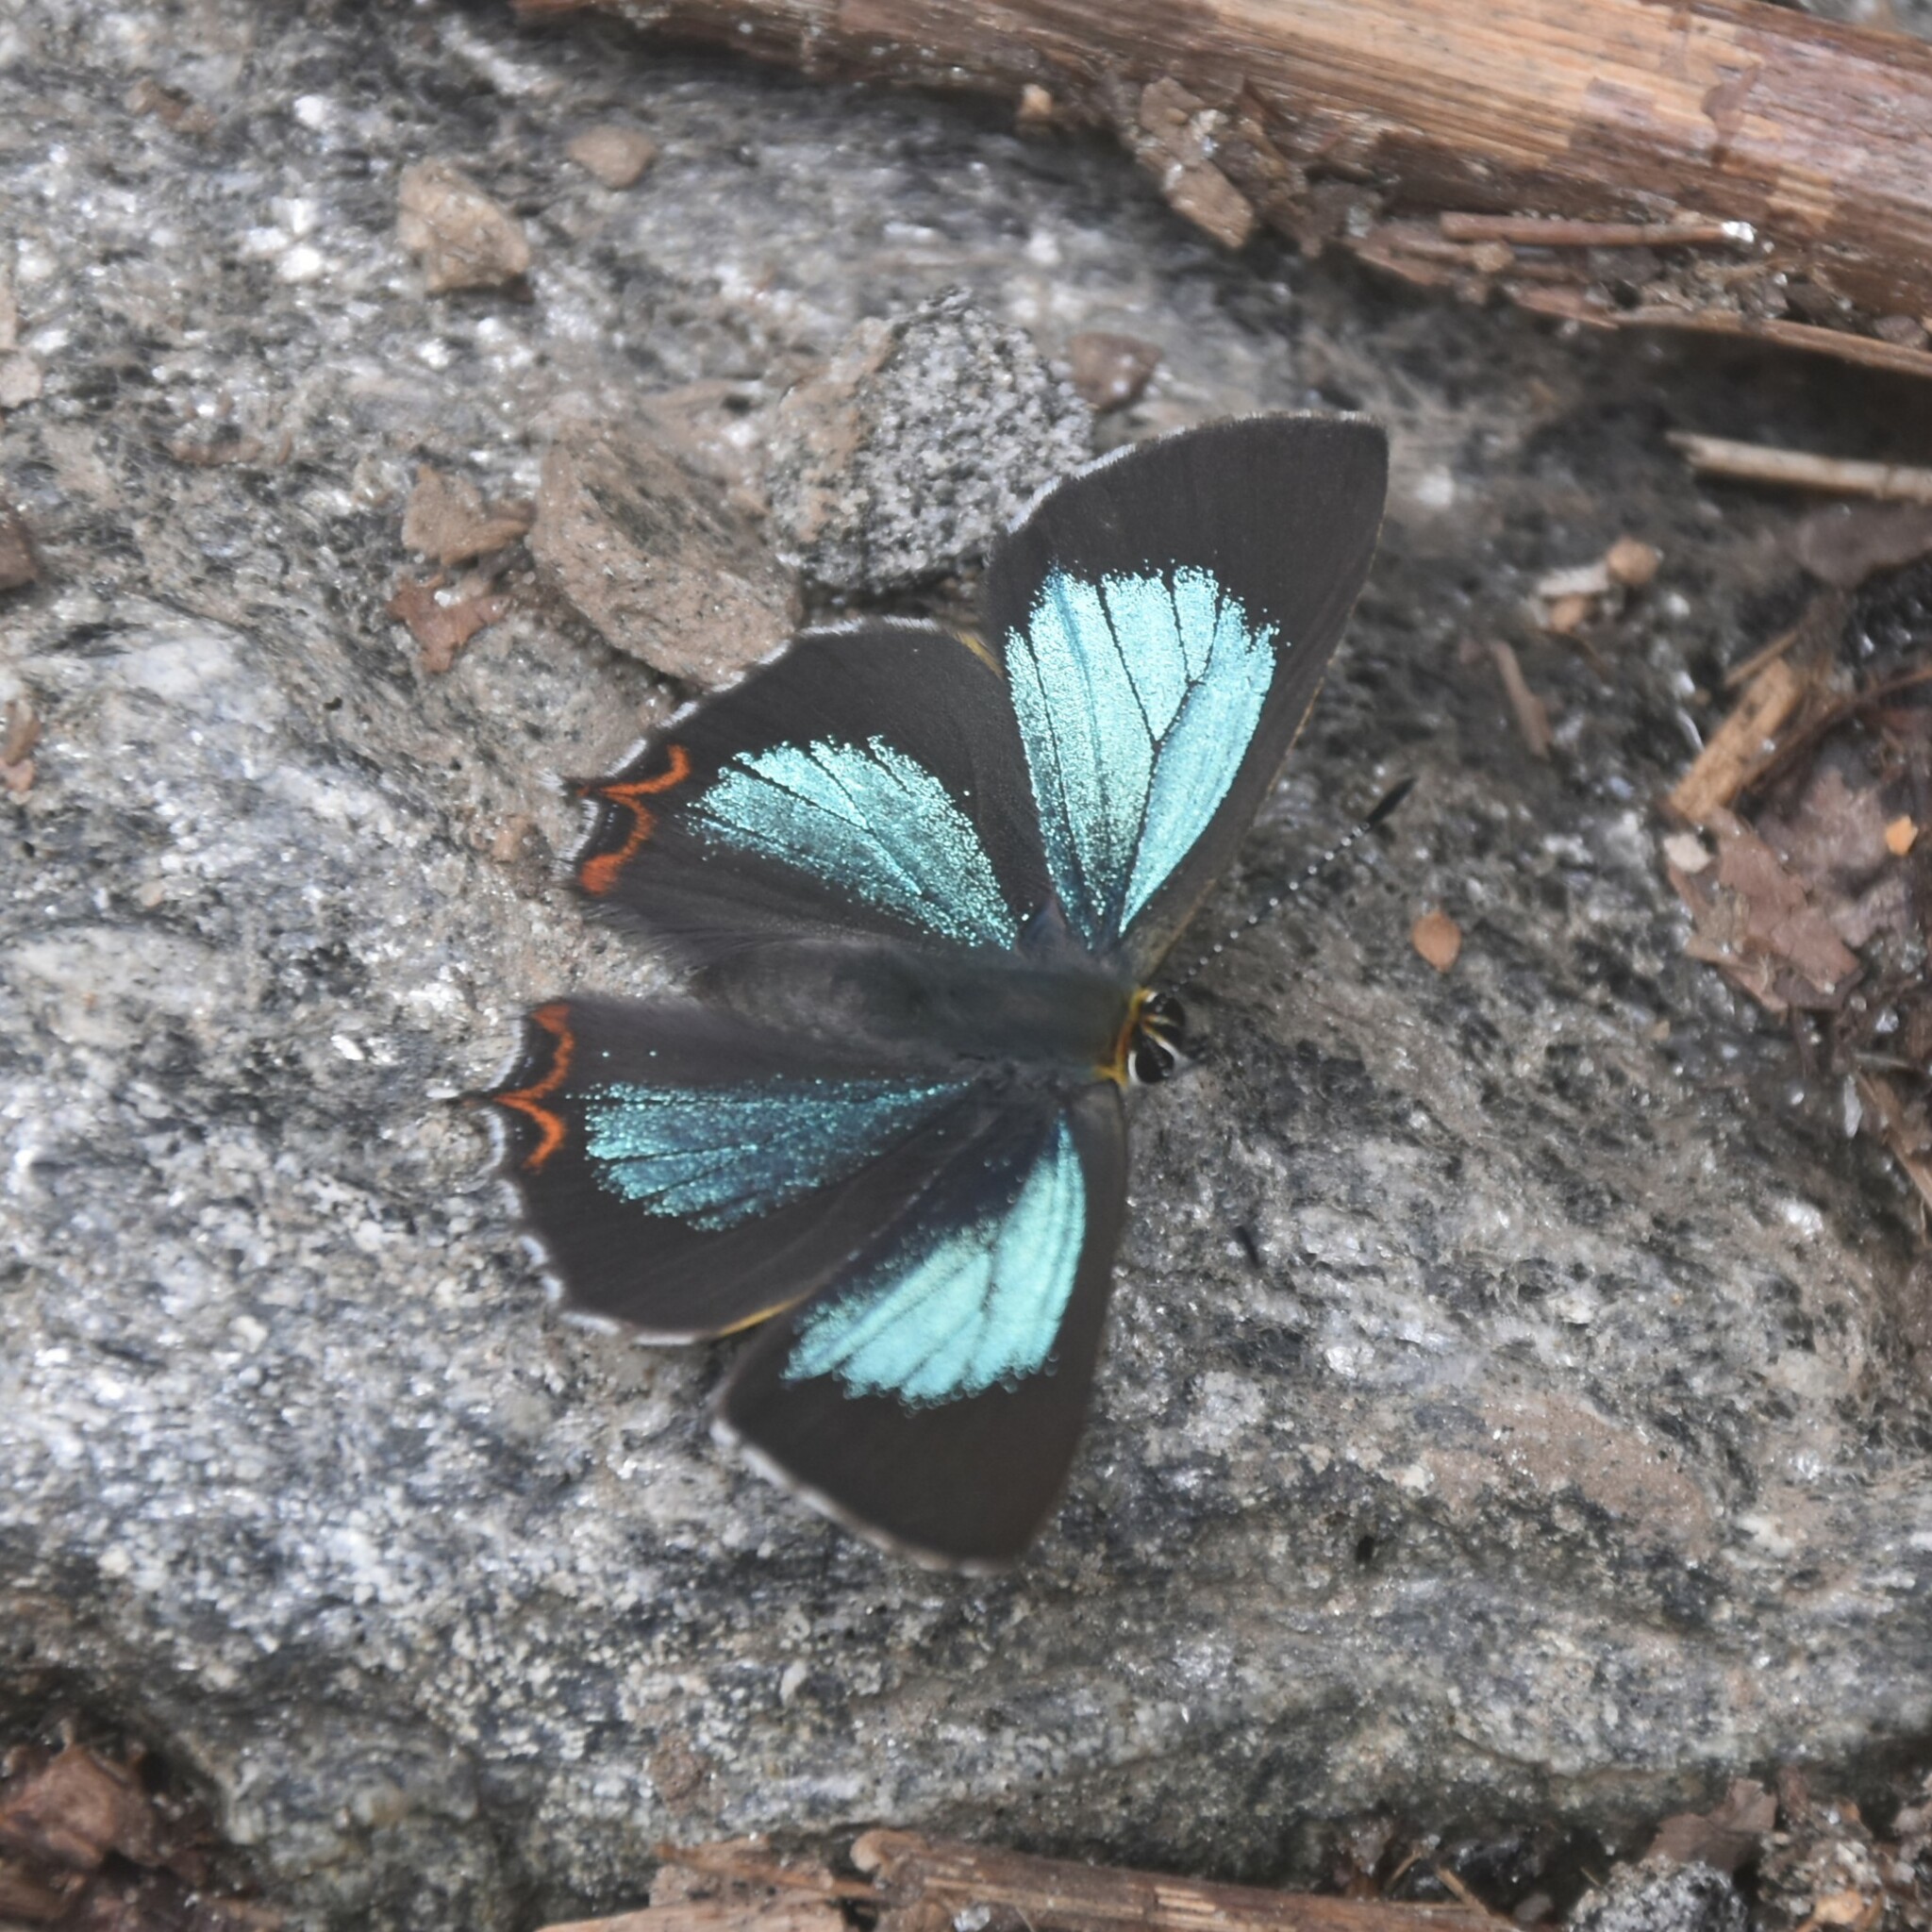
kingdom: Animalia
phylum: Arthropoda
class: Insecta
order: Lepidoptera
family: Lycaenidae
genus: Heliophorus
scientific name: Heliophorus
